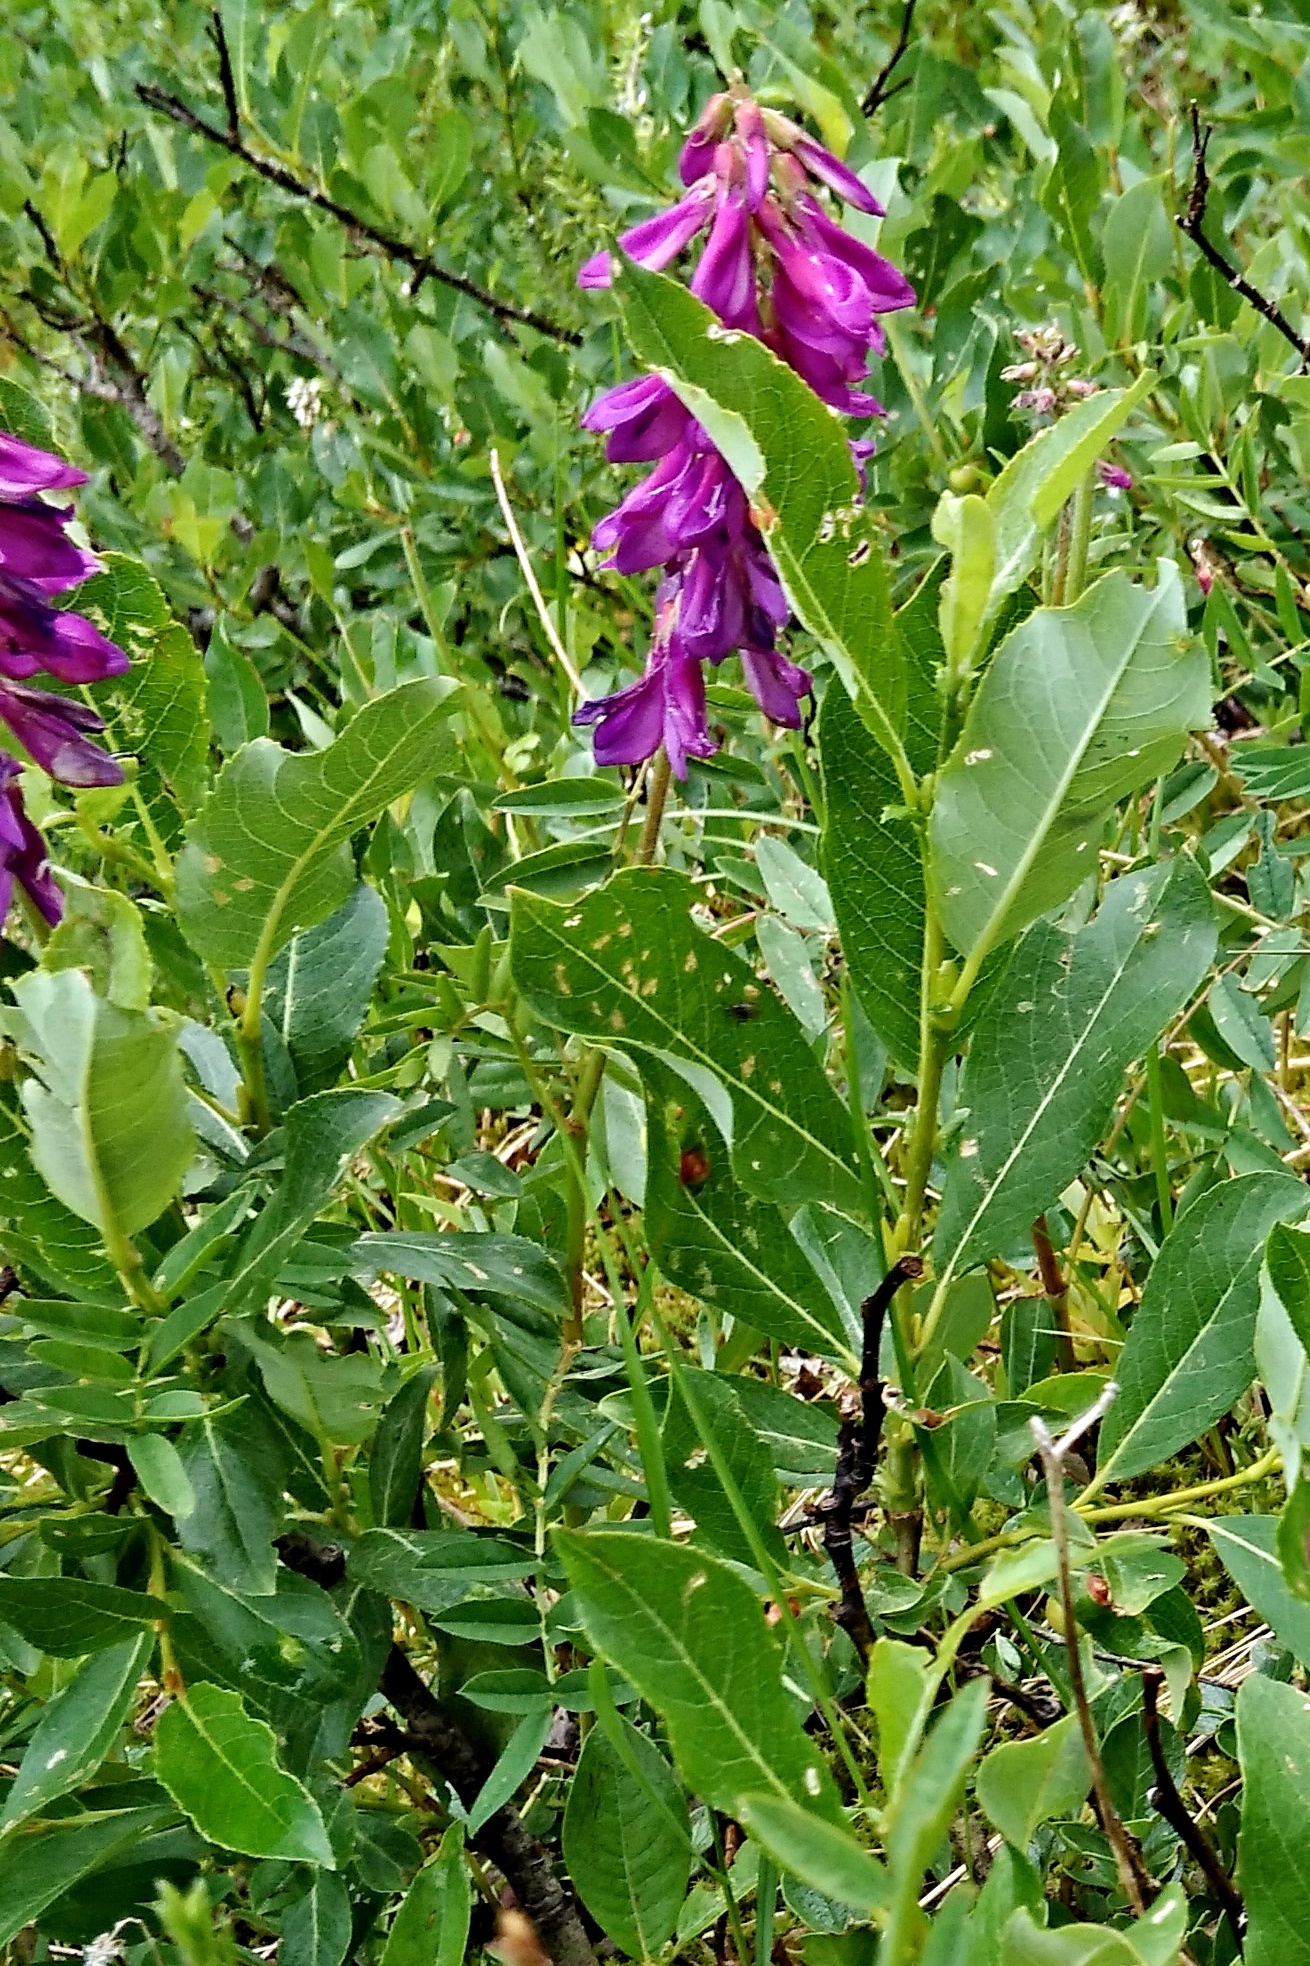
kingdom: Plantae
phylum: Tracheophyta
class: Magnoliopsida
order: Fabales
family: Fabaceae
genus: Hedysarum
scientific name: Hedysarum hedysaroides
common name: Alpine french-honeysuckle
